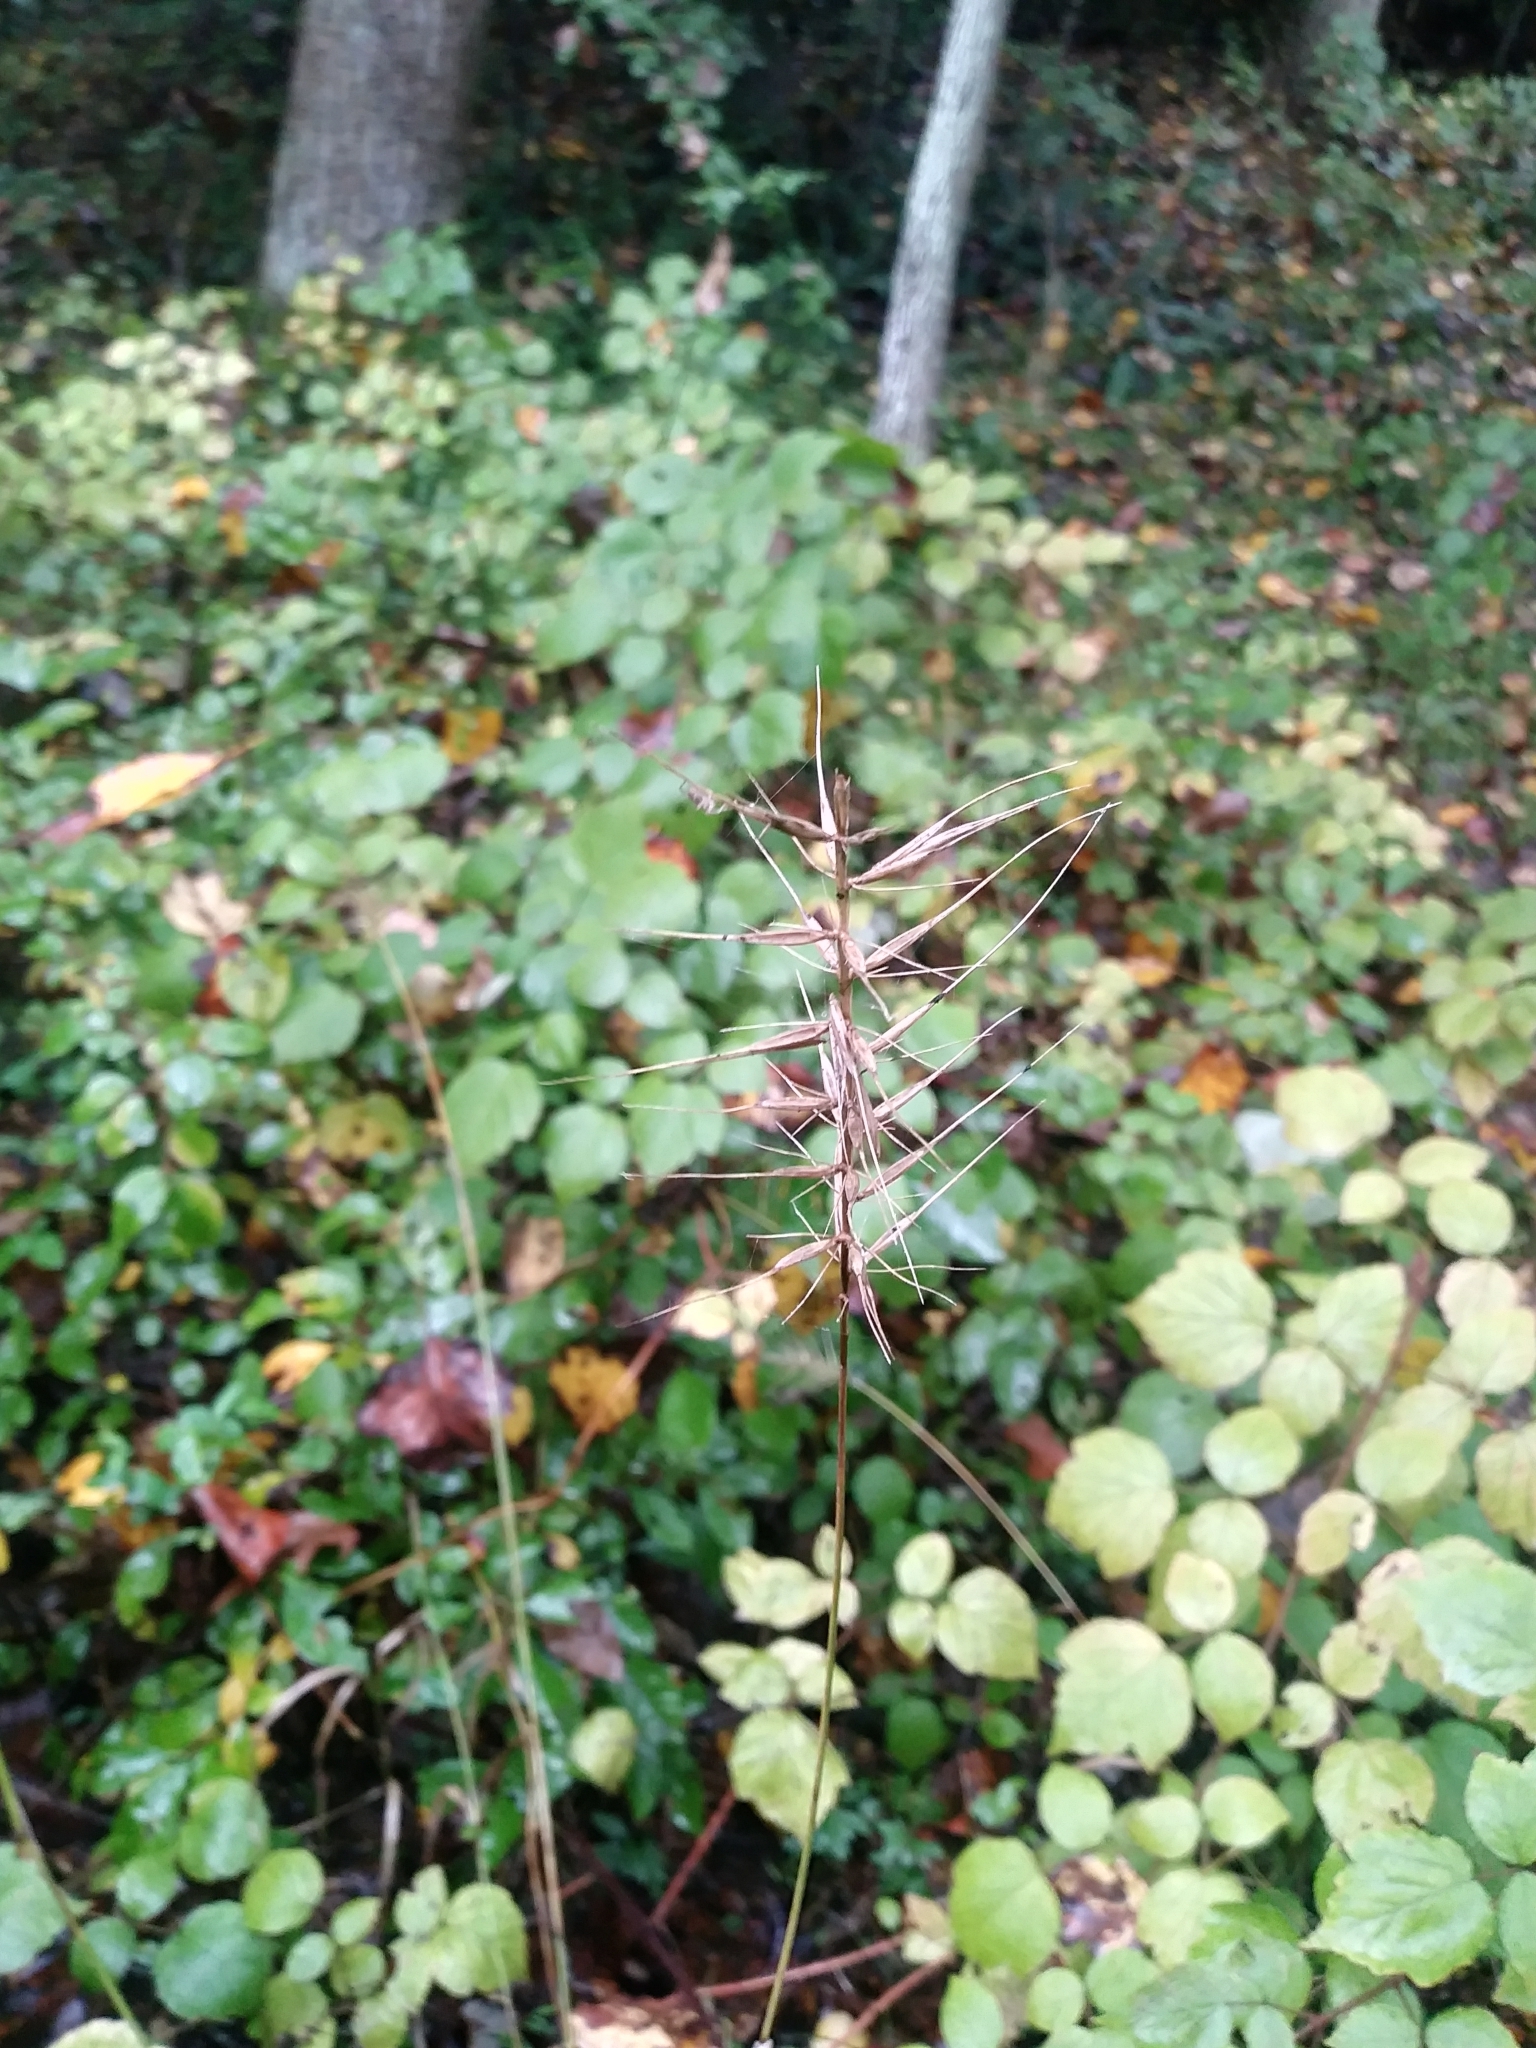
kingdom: Plantae
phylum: Tracheophyta
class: Liliopsida
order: Poales
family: Poaceae
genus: Elymus
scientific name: Elymus hystrix
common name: Bottlebrush grass
